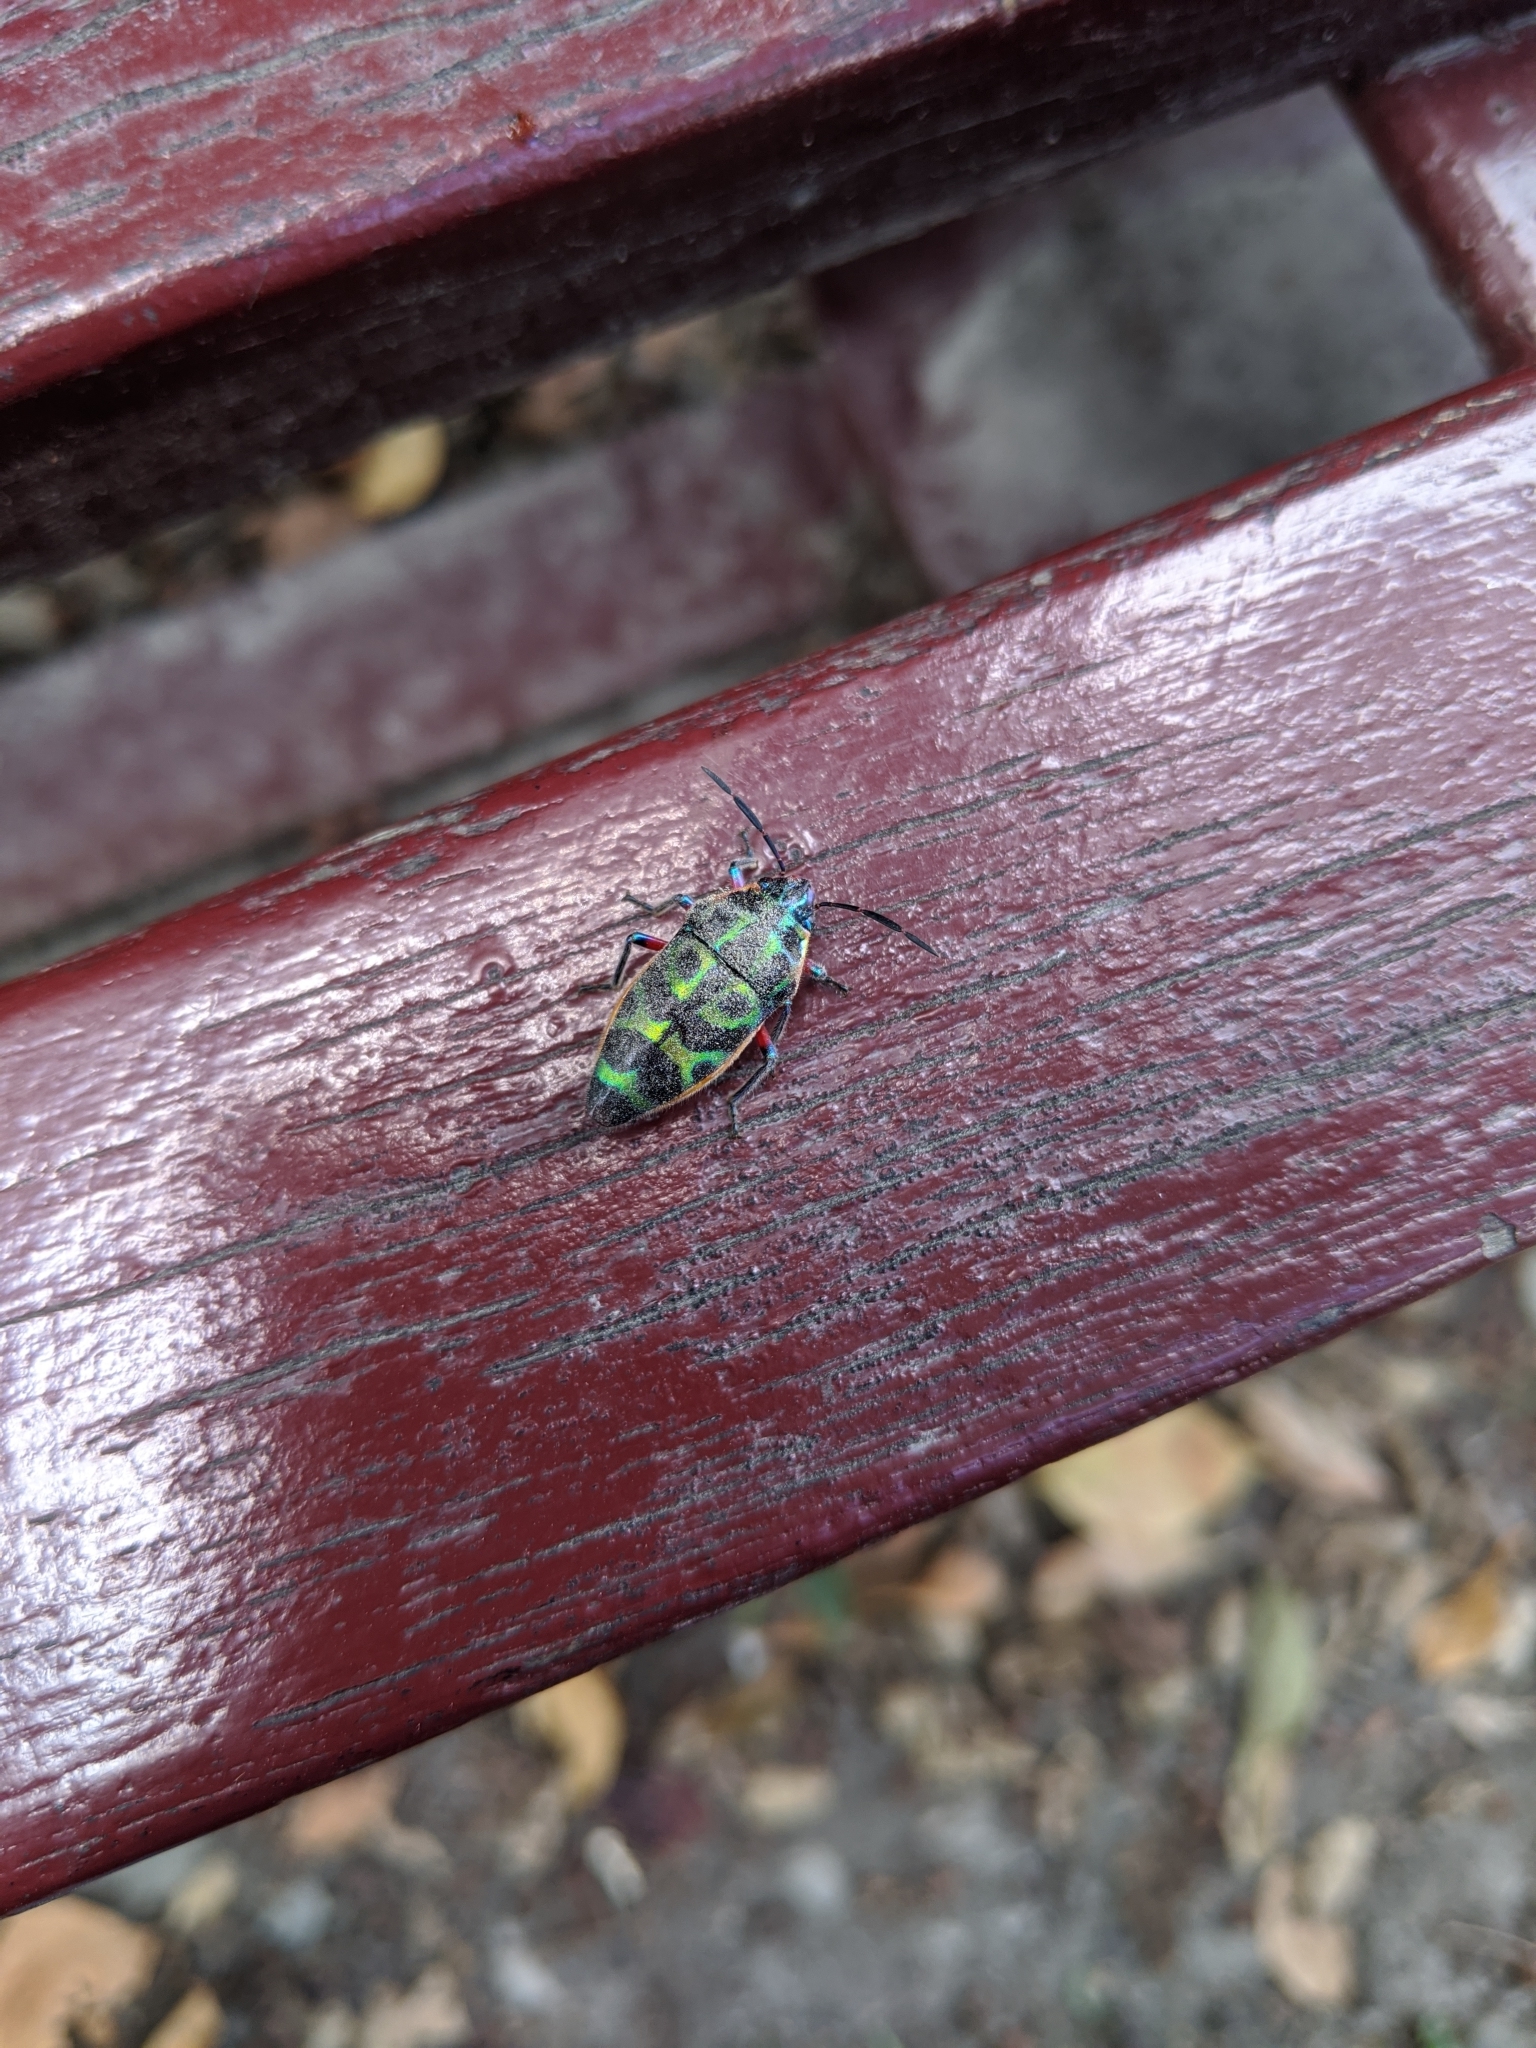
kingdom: Animalia
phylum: Arthropoda
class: Insecta
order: Hemiptera
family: Scutelleridae
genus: Scutellera
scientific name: Scutellera nepalensis
